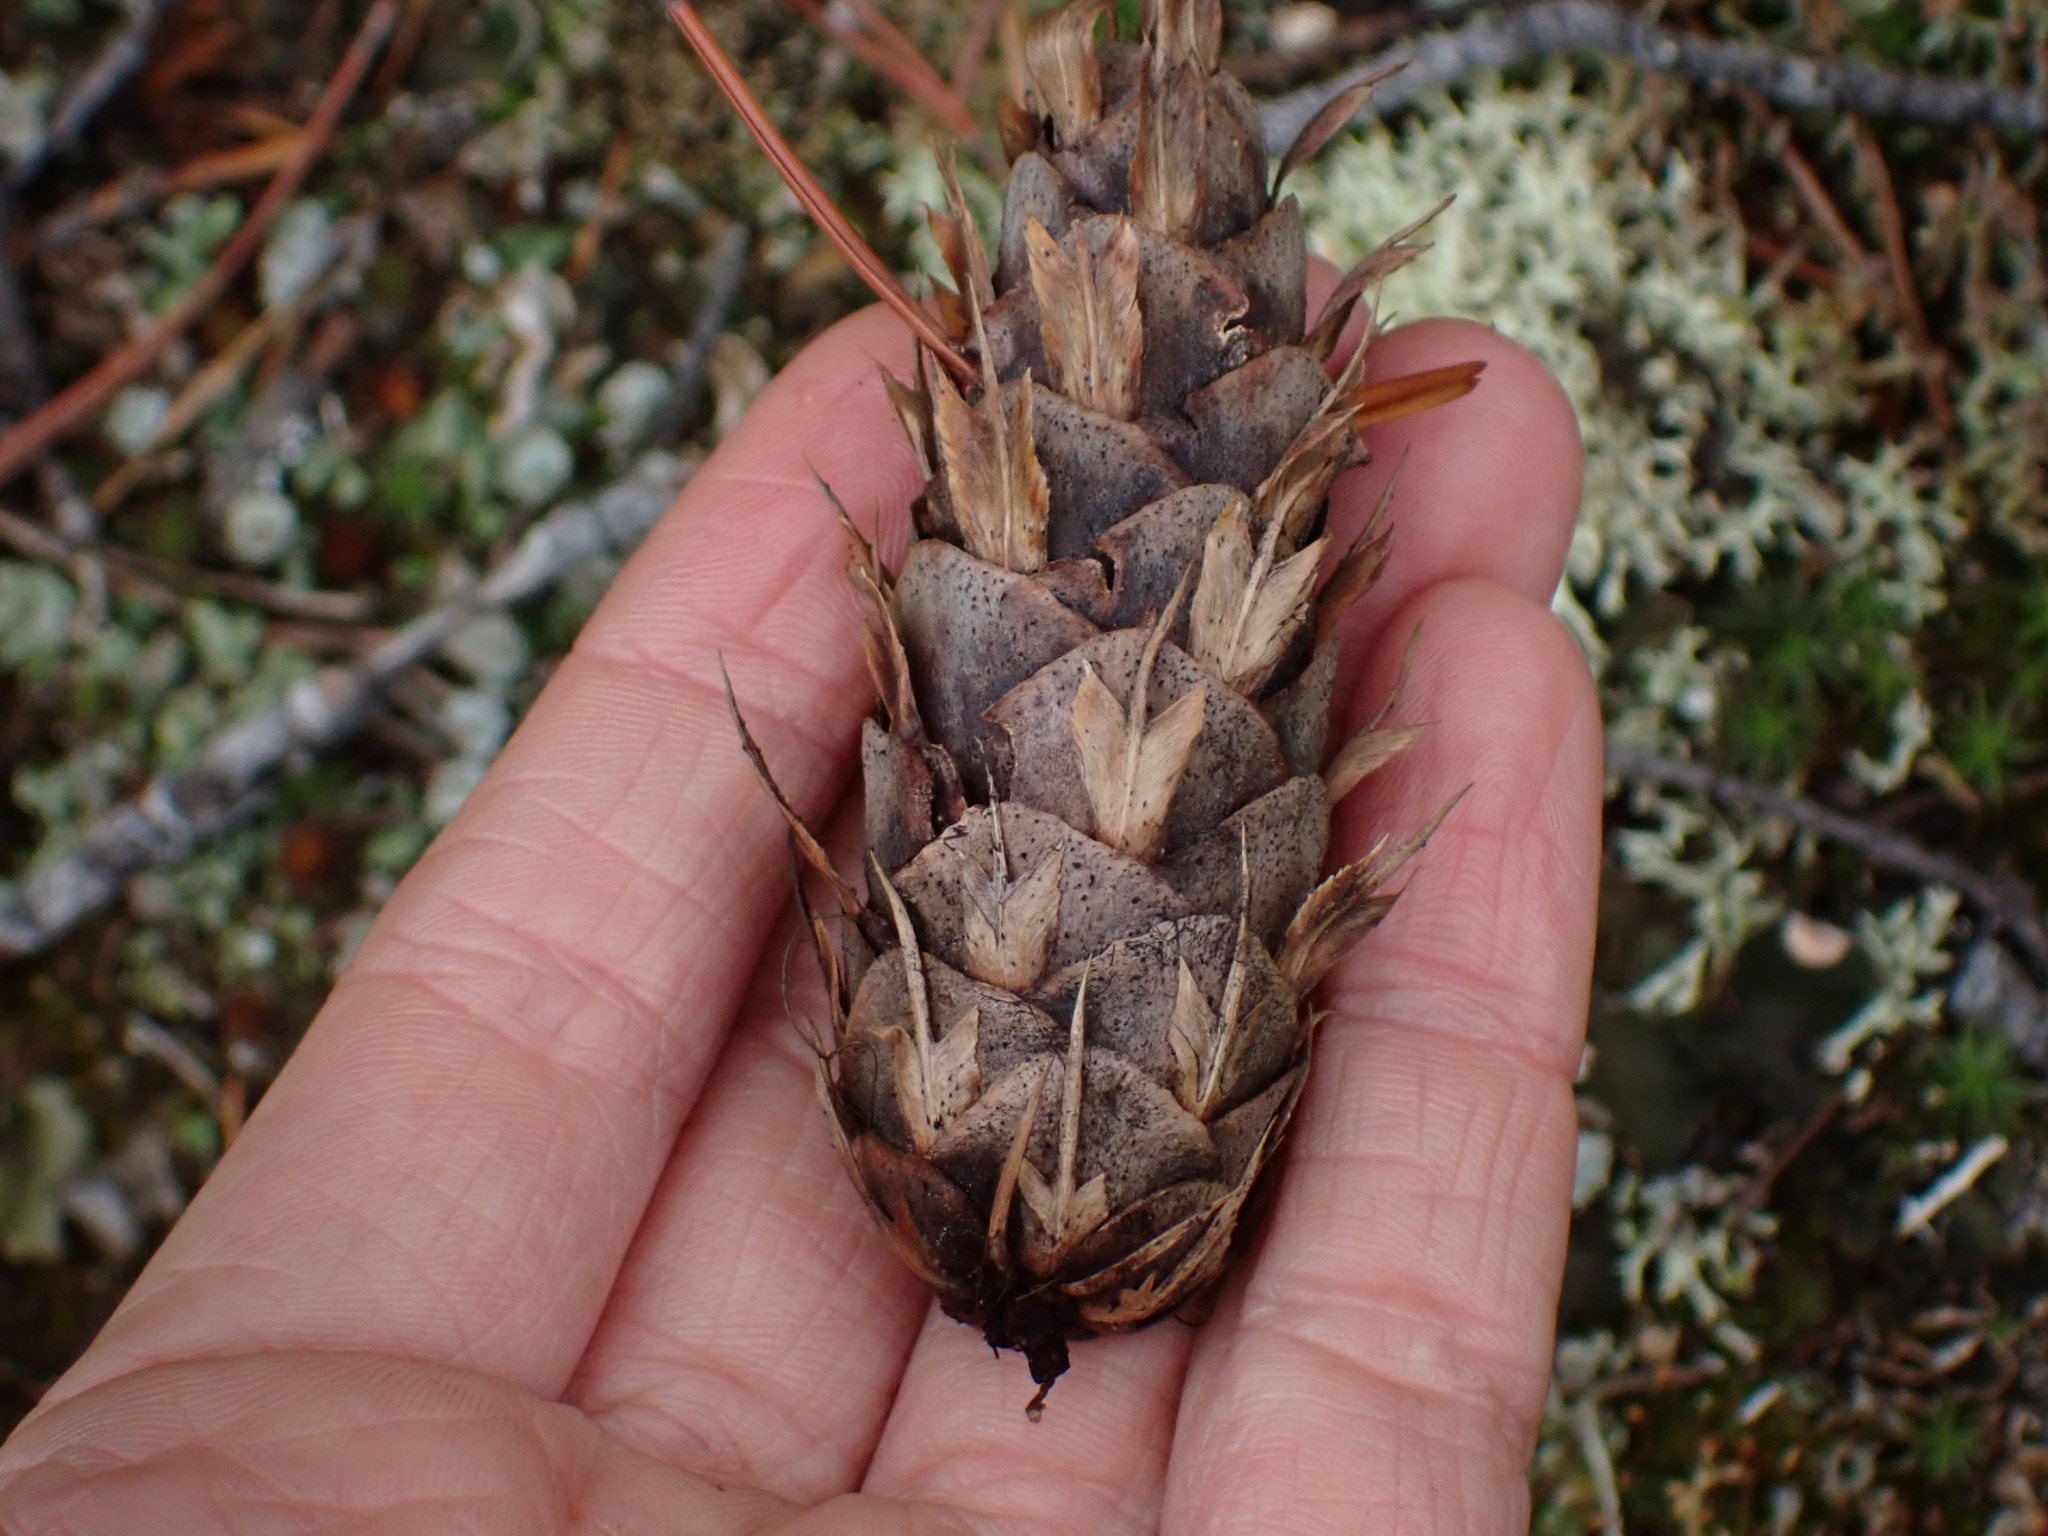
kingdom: Plantae
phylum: Tracheophyta
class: Pinopsida
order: Pinales
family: Pinaceae
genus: Pseudotsuga
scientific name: Pseudotsuga menziesii
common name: Douglas fir
